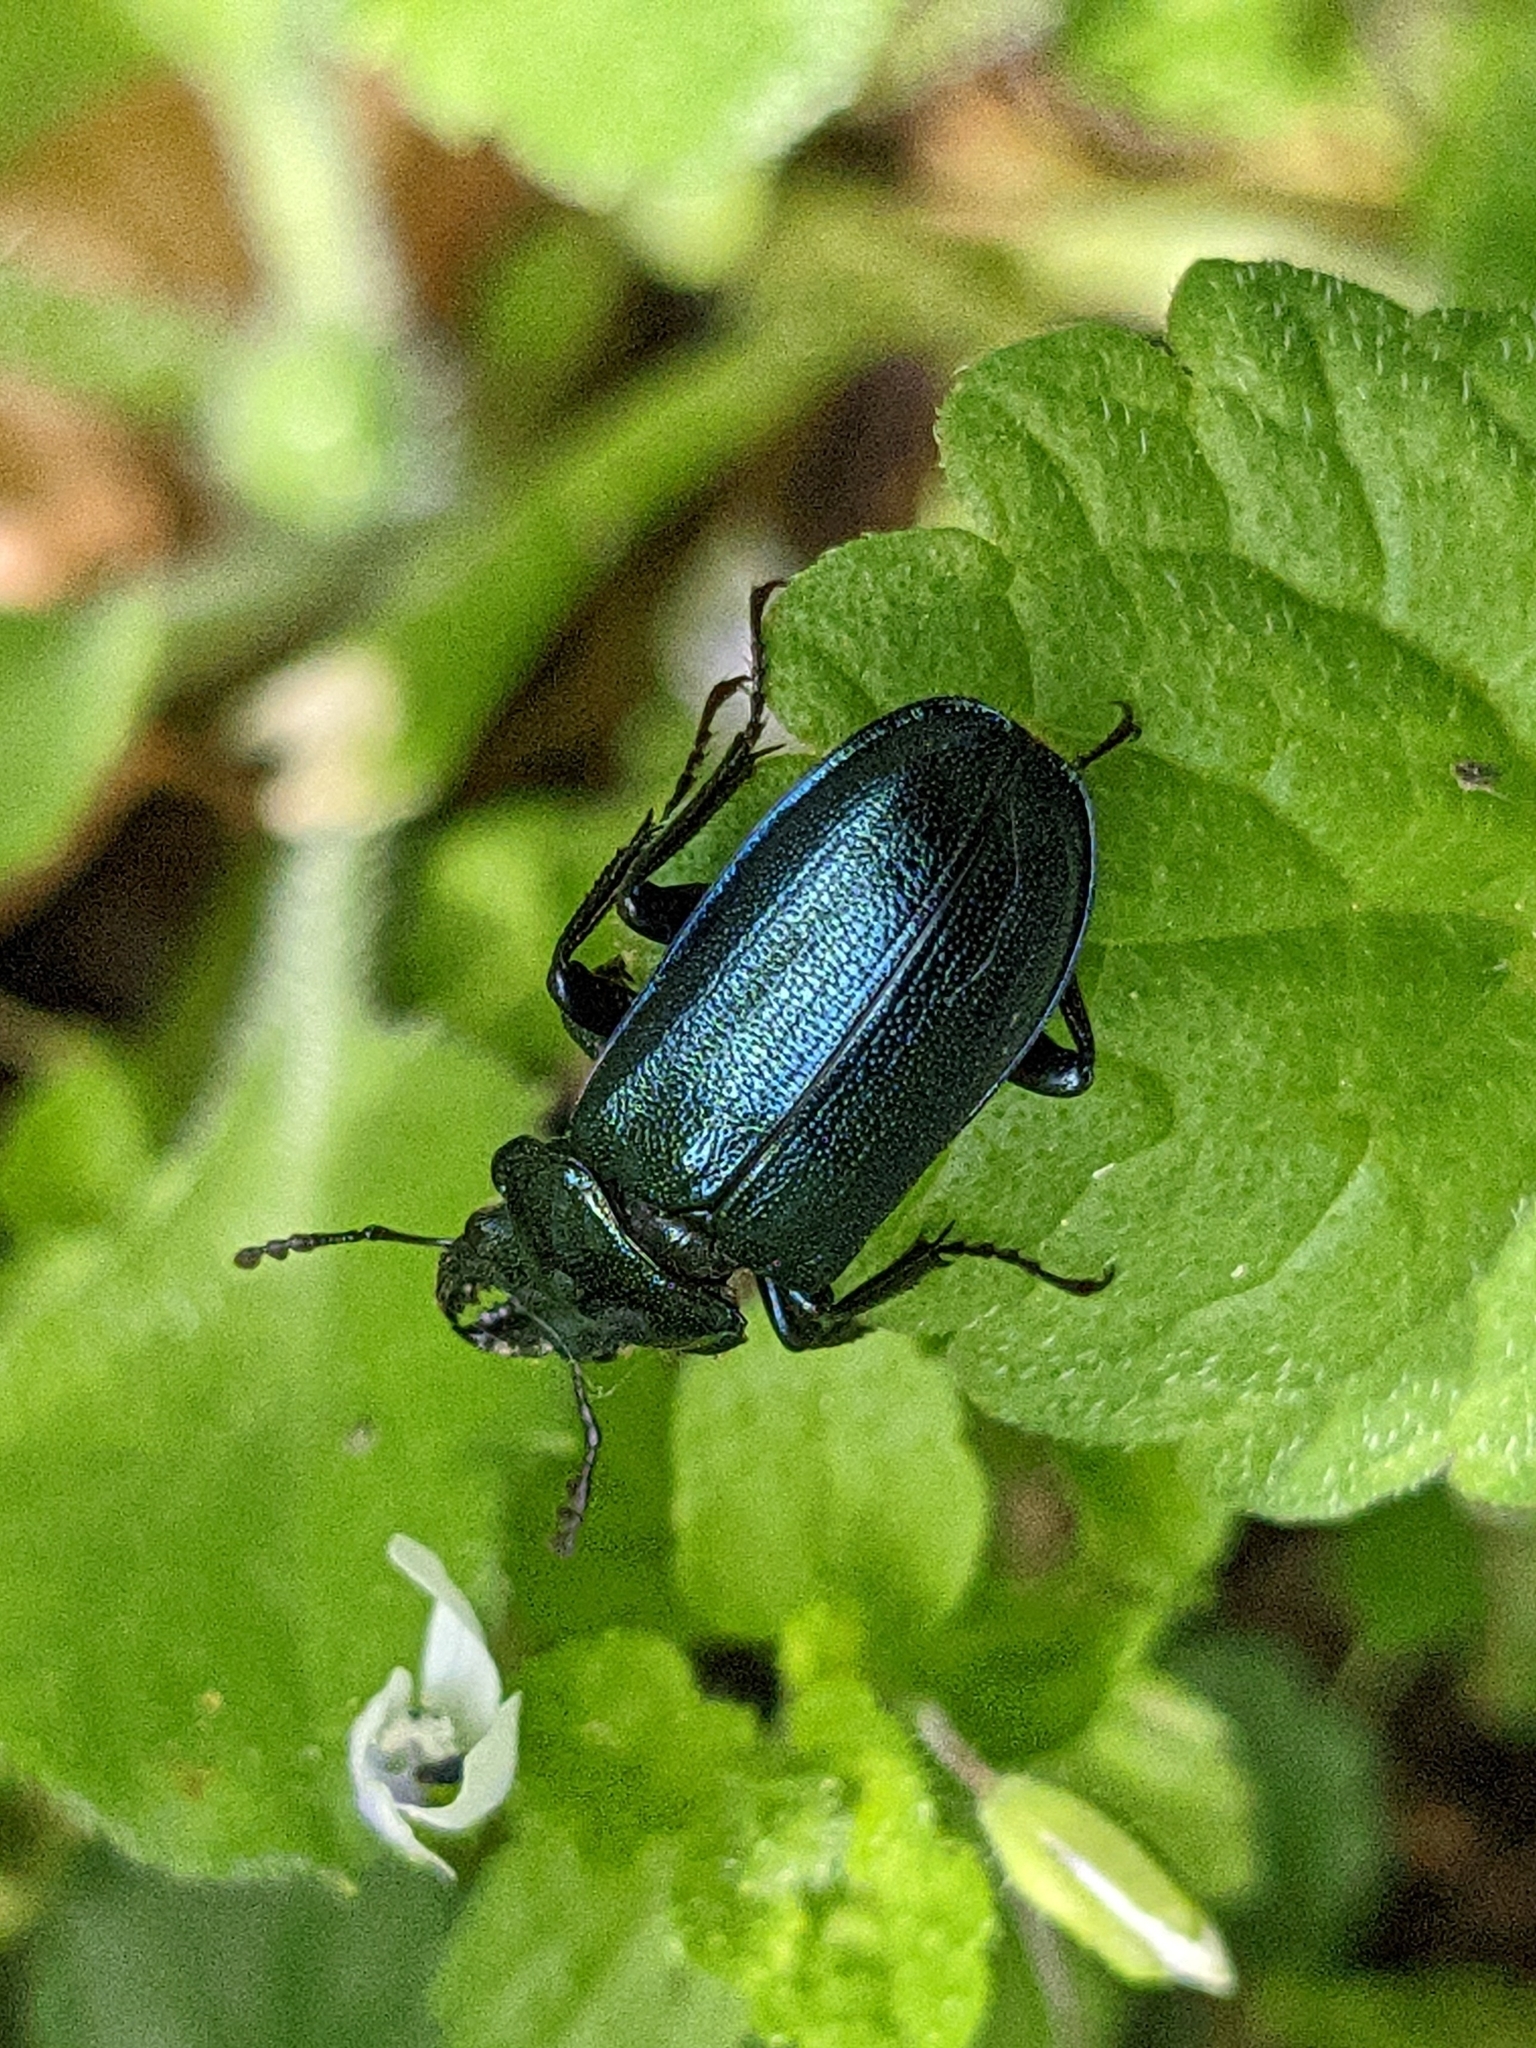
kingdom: Animalia
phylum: Arthropoda
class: Insecta
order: Coleoptera
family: Lucanidae
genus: Platycerus
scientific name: Platycerus caprea
